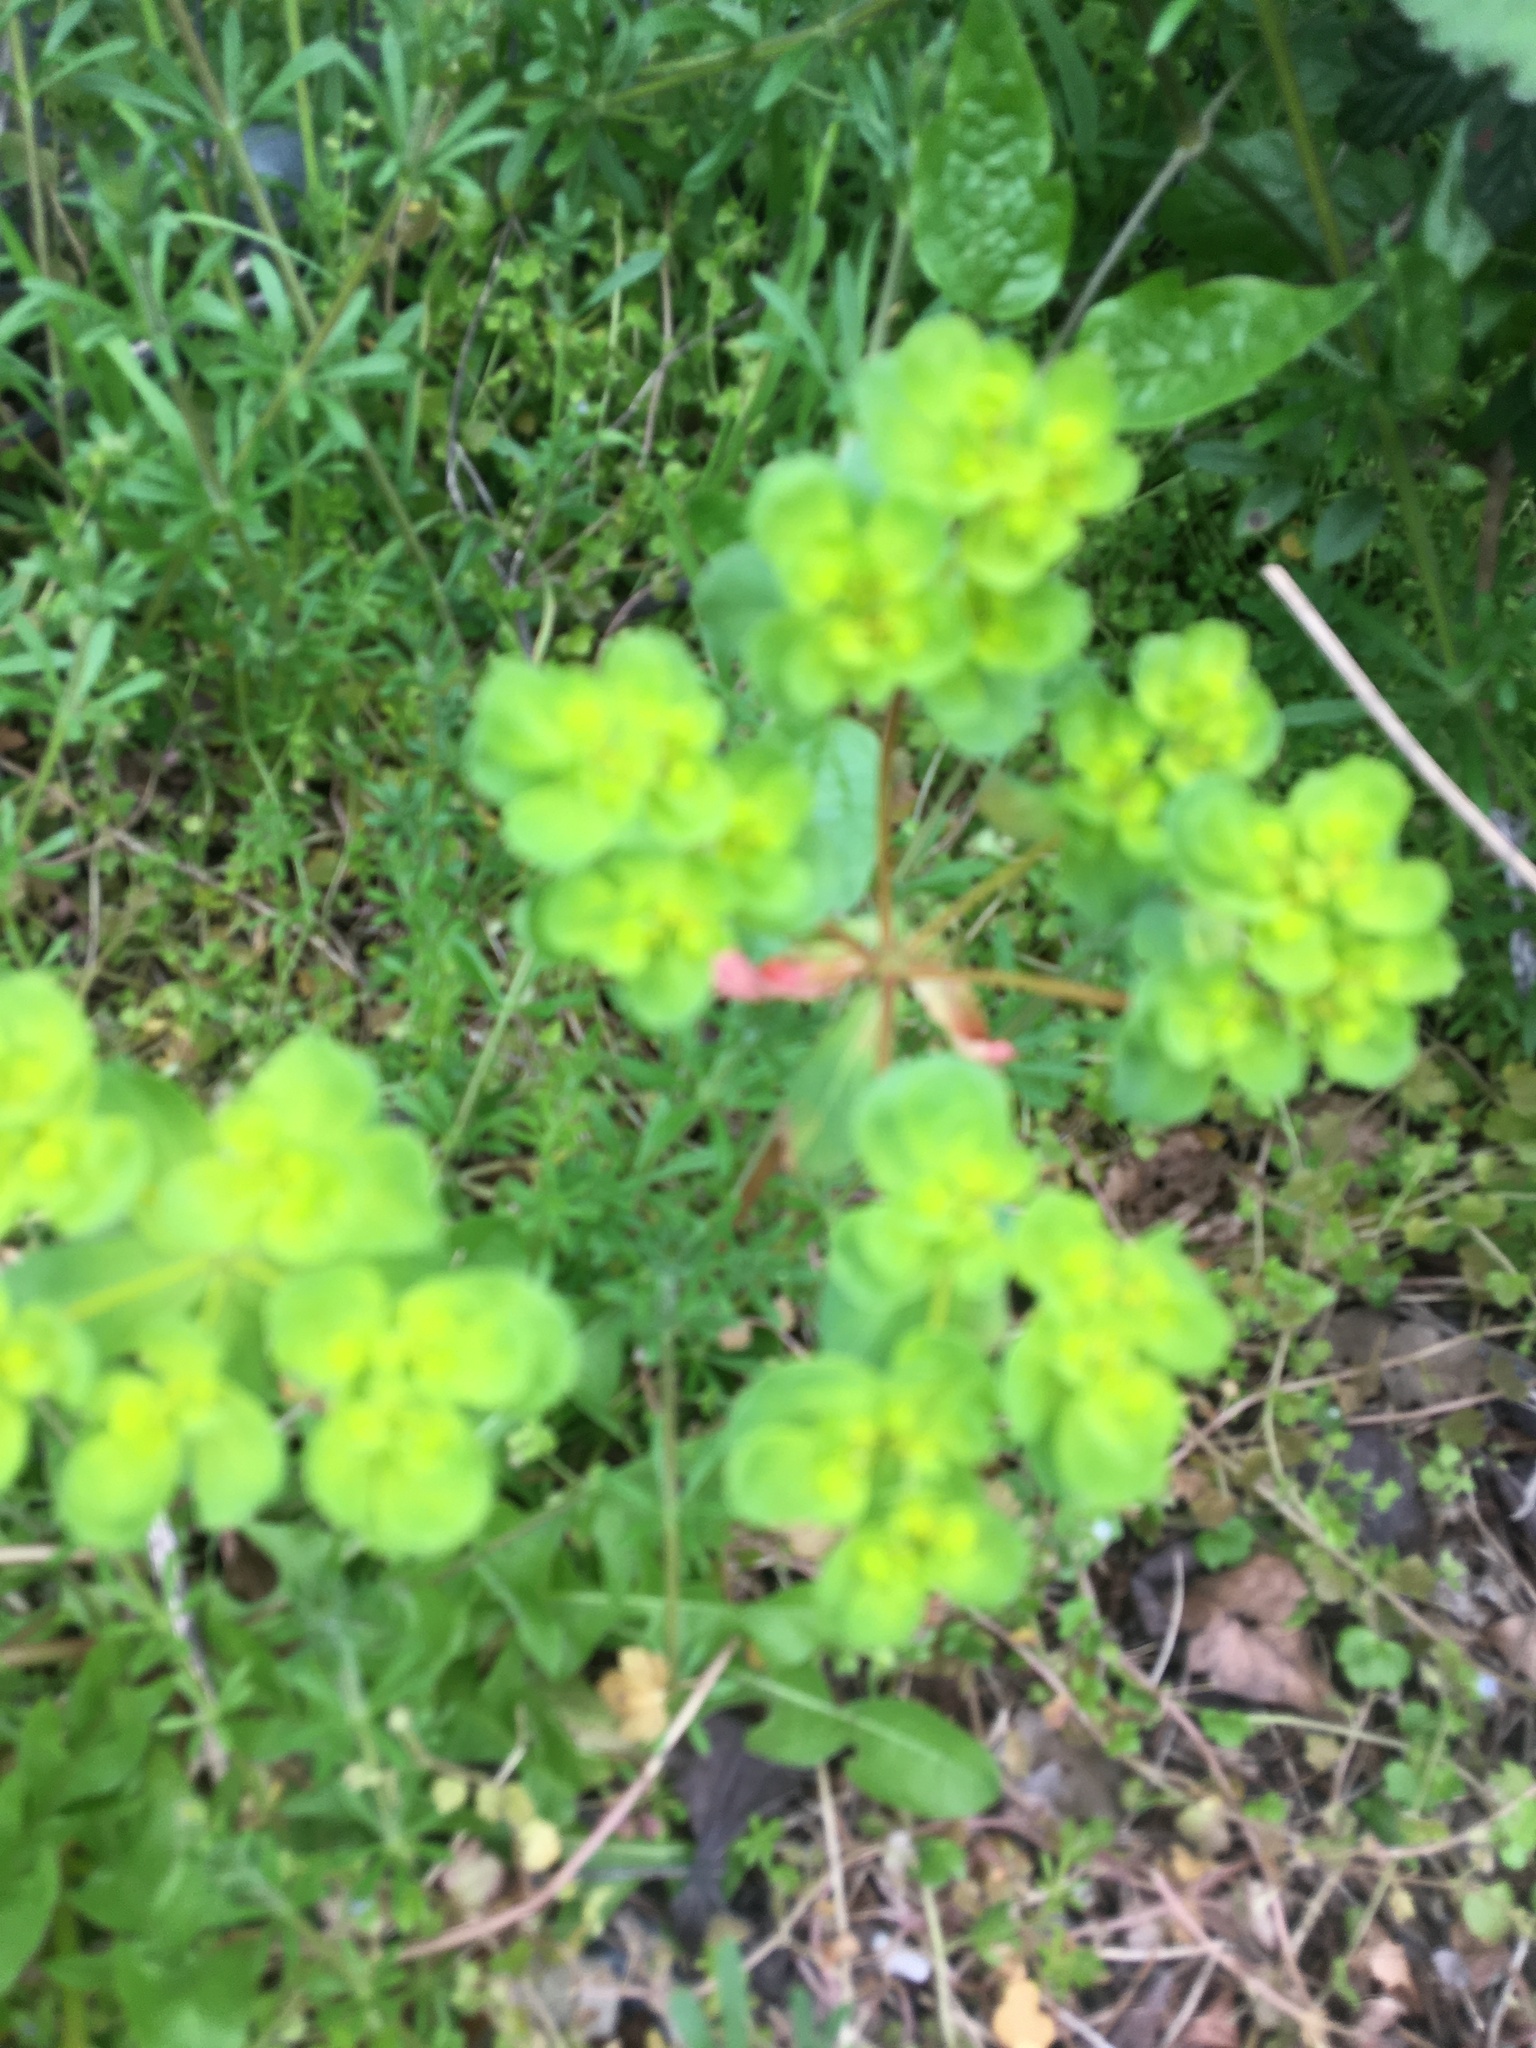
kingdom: Plantae
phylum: Tracheophyta
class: Magnoliopsida
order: Malpighiales
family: Euphorbiaceae
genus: Euphorbia
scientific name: Euphorbia helioscopia
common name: Sun spurge
